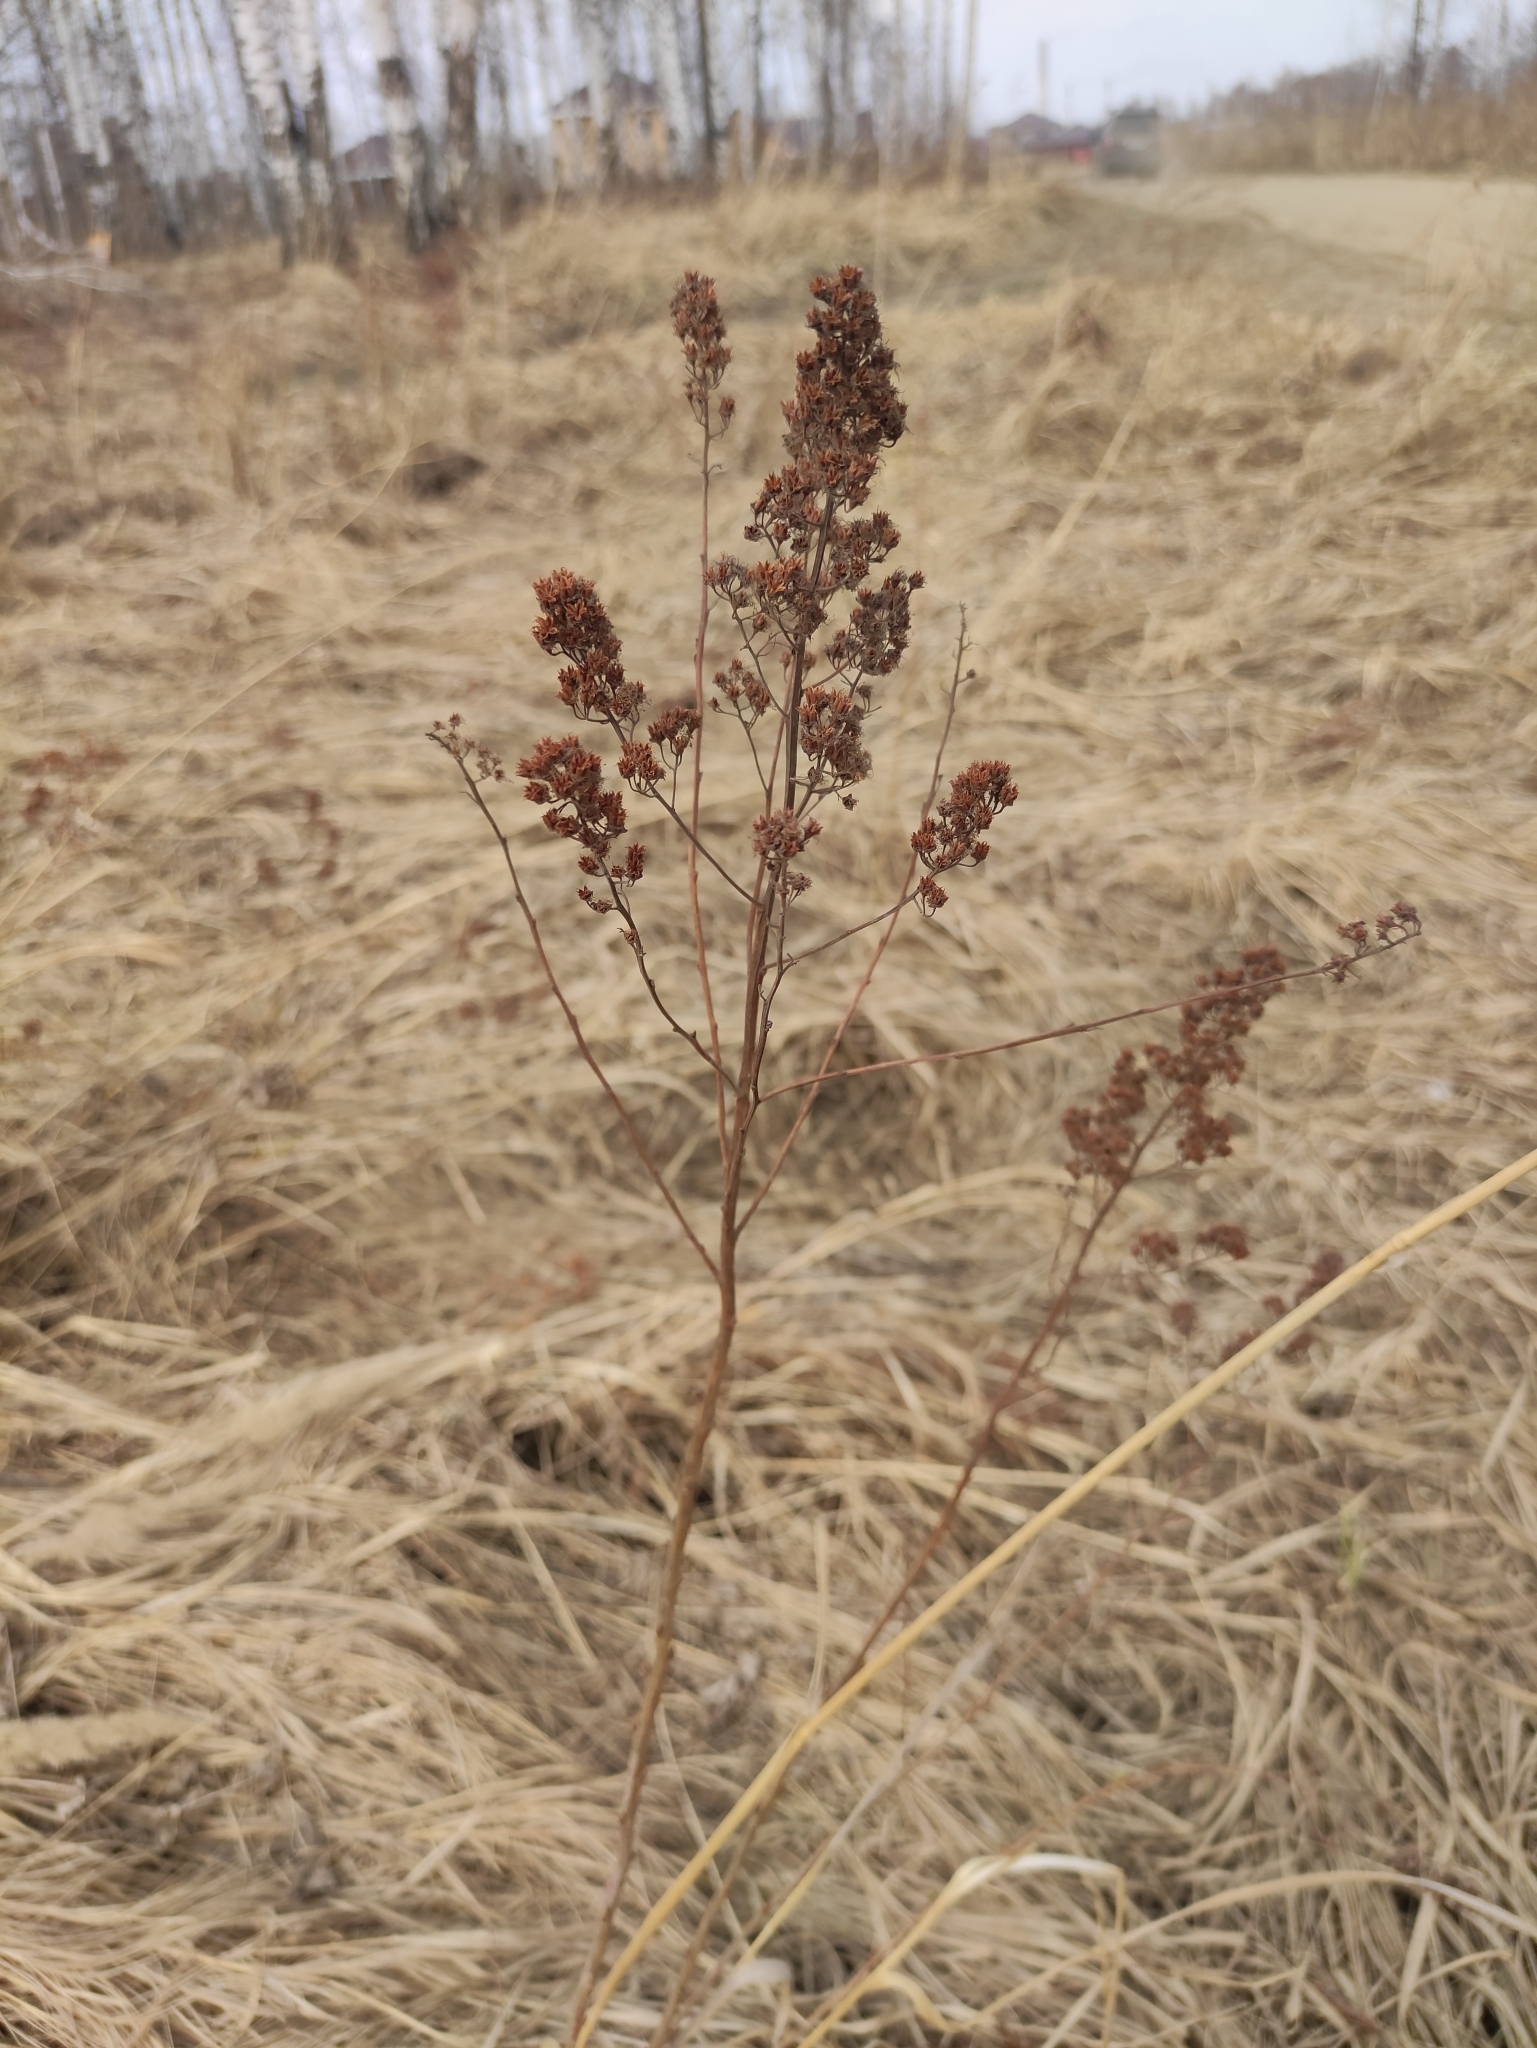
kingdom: Plantae
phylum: Tracheophyta
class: Magnoliopsida
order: Rosales
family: Rosaceae
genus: Spiraea
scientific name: Spiraea salicifolia
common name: Bridewort
